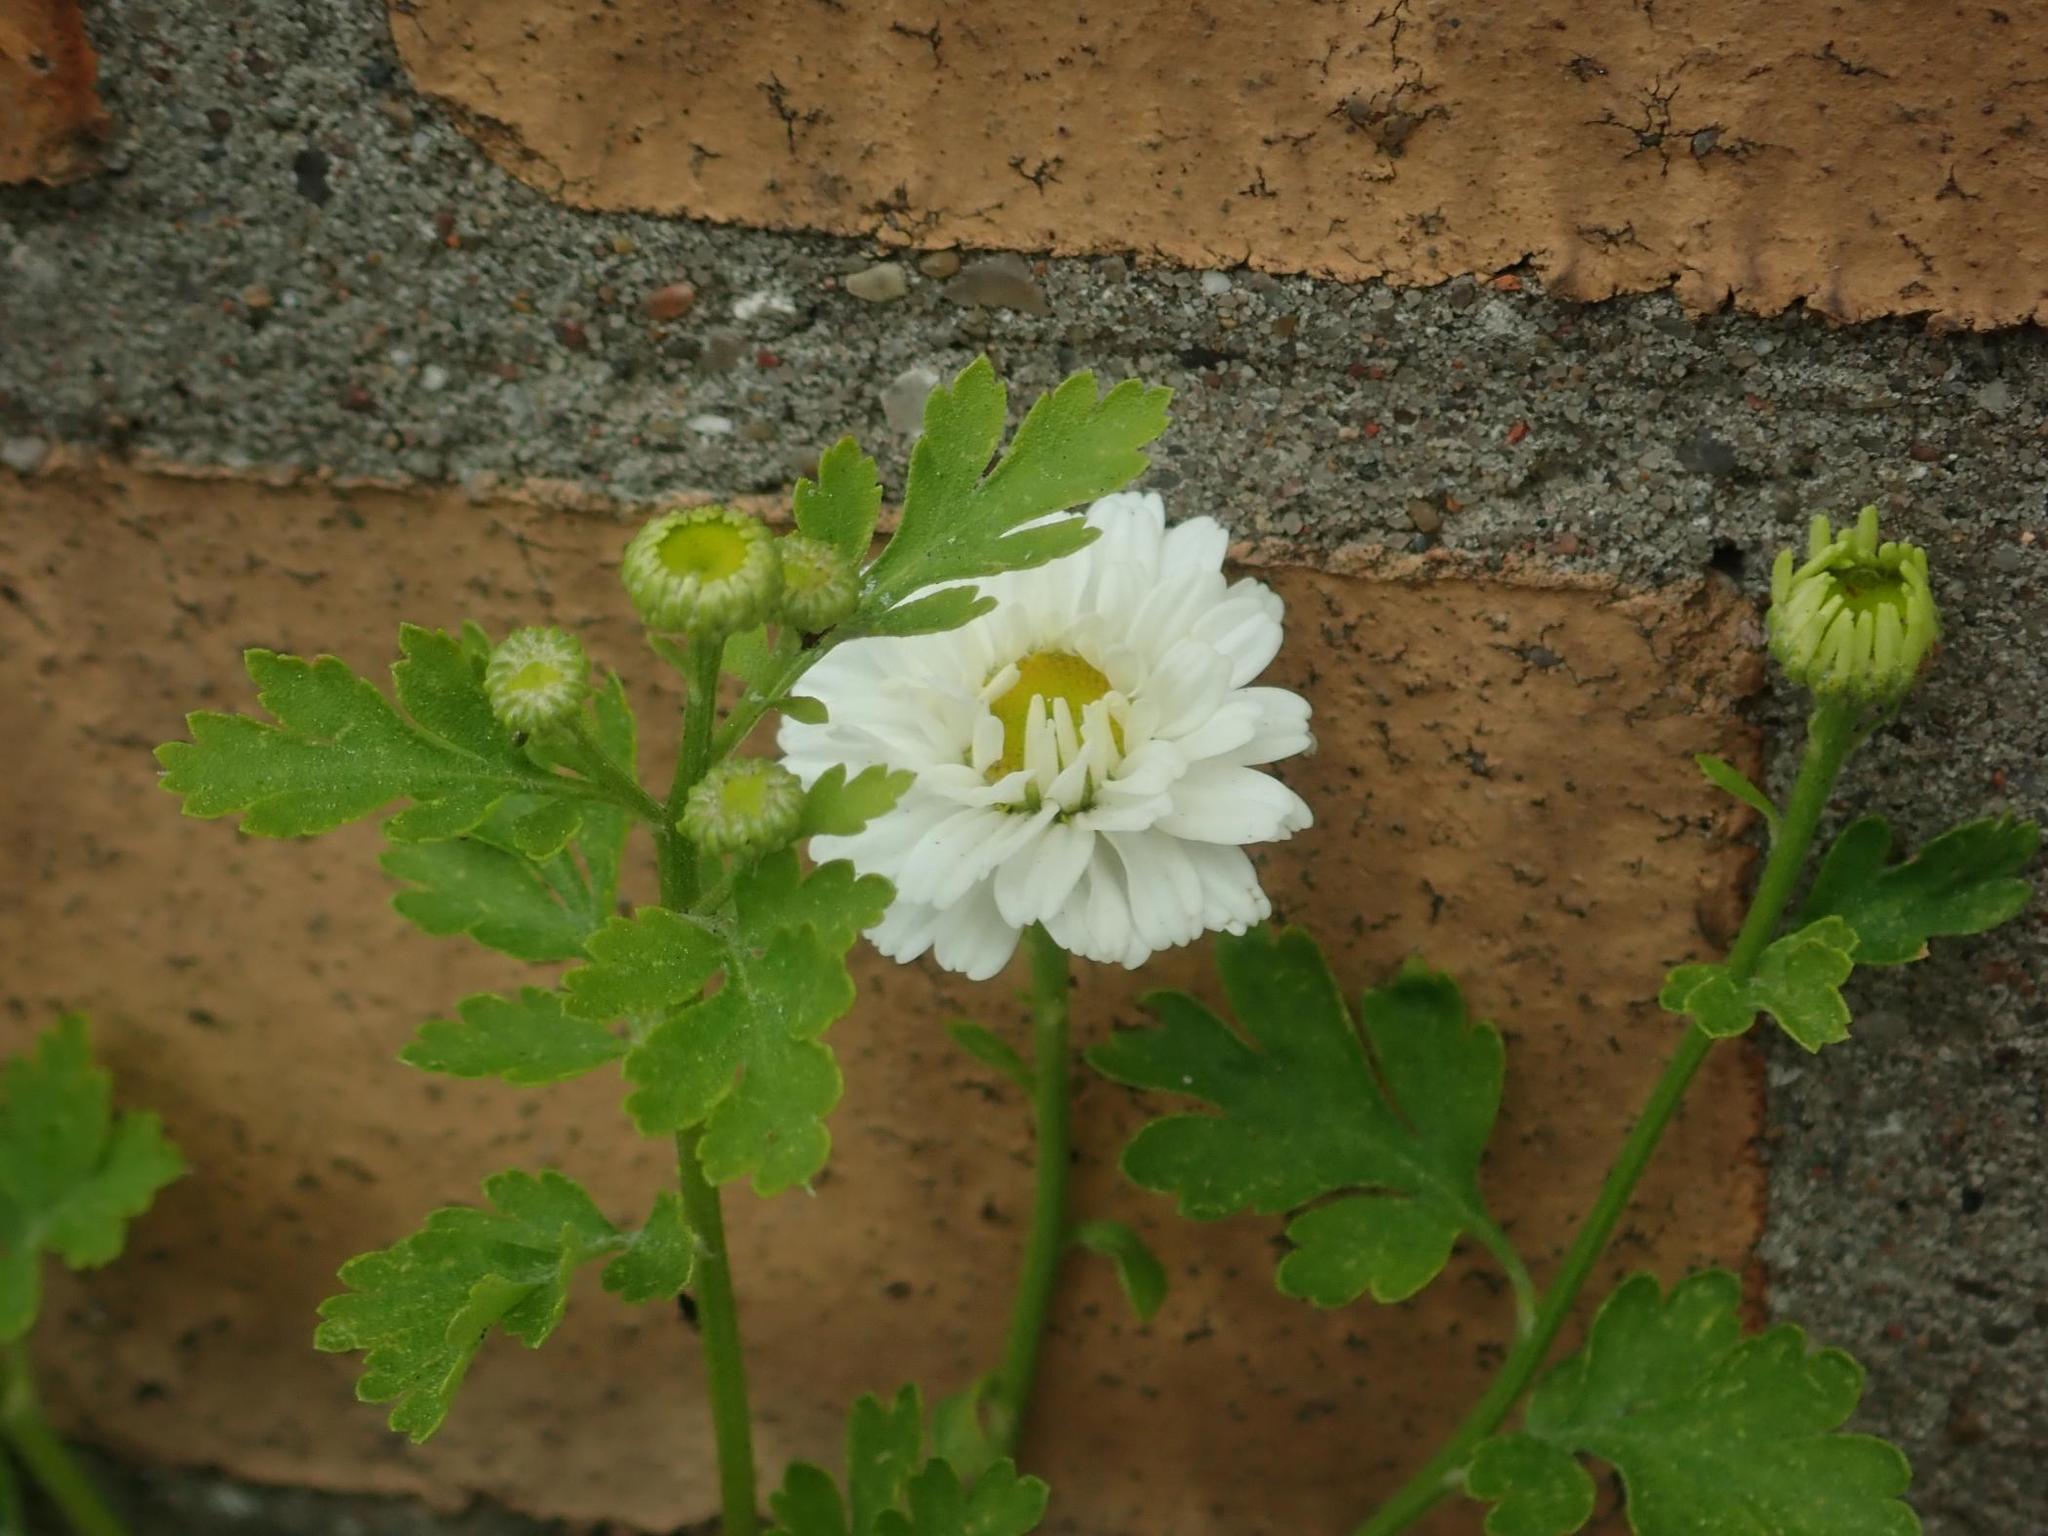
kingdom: Plantae
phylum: Tracheophyta
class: Magnoliopsida
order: Asterales
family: Asteraceae
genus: Tanacetum
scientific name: Tanacetum parthenium
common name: Feverfew
